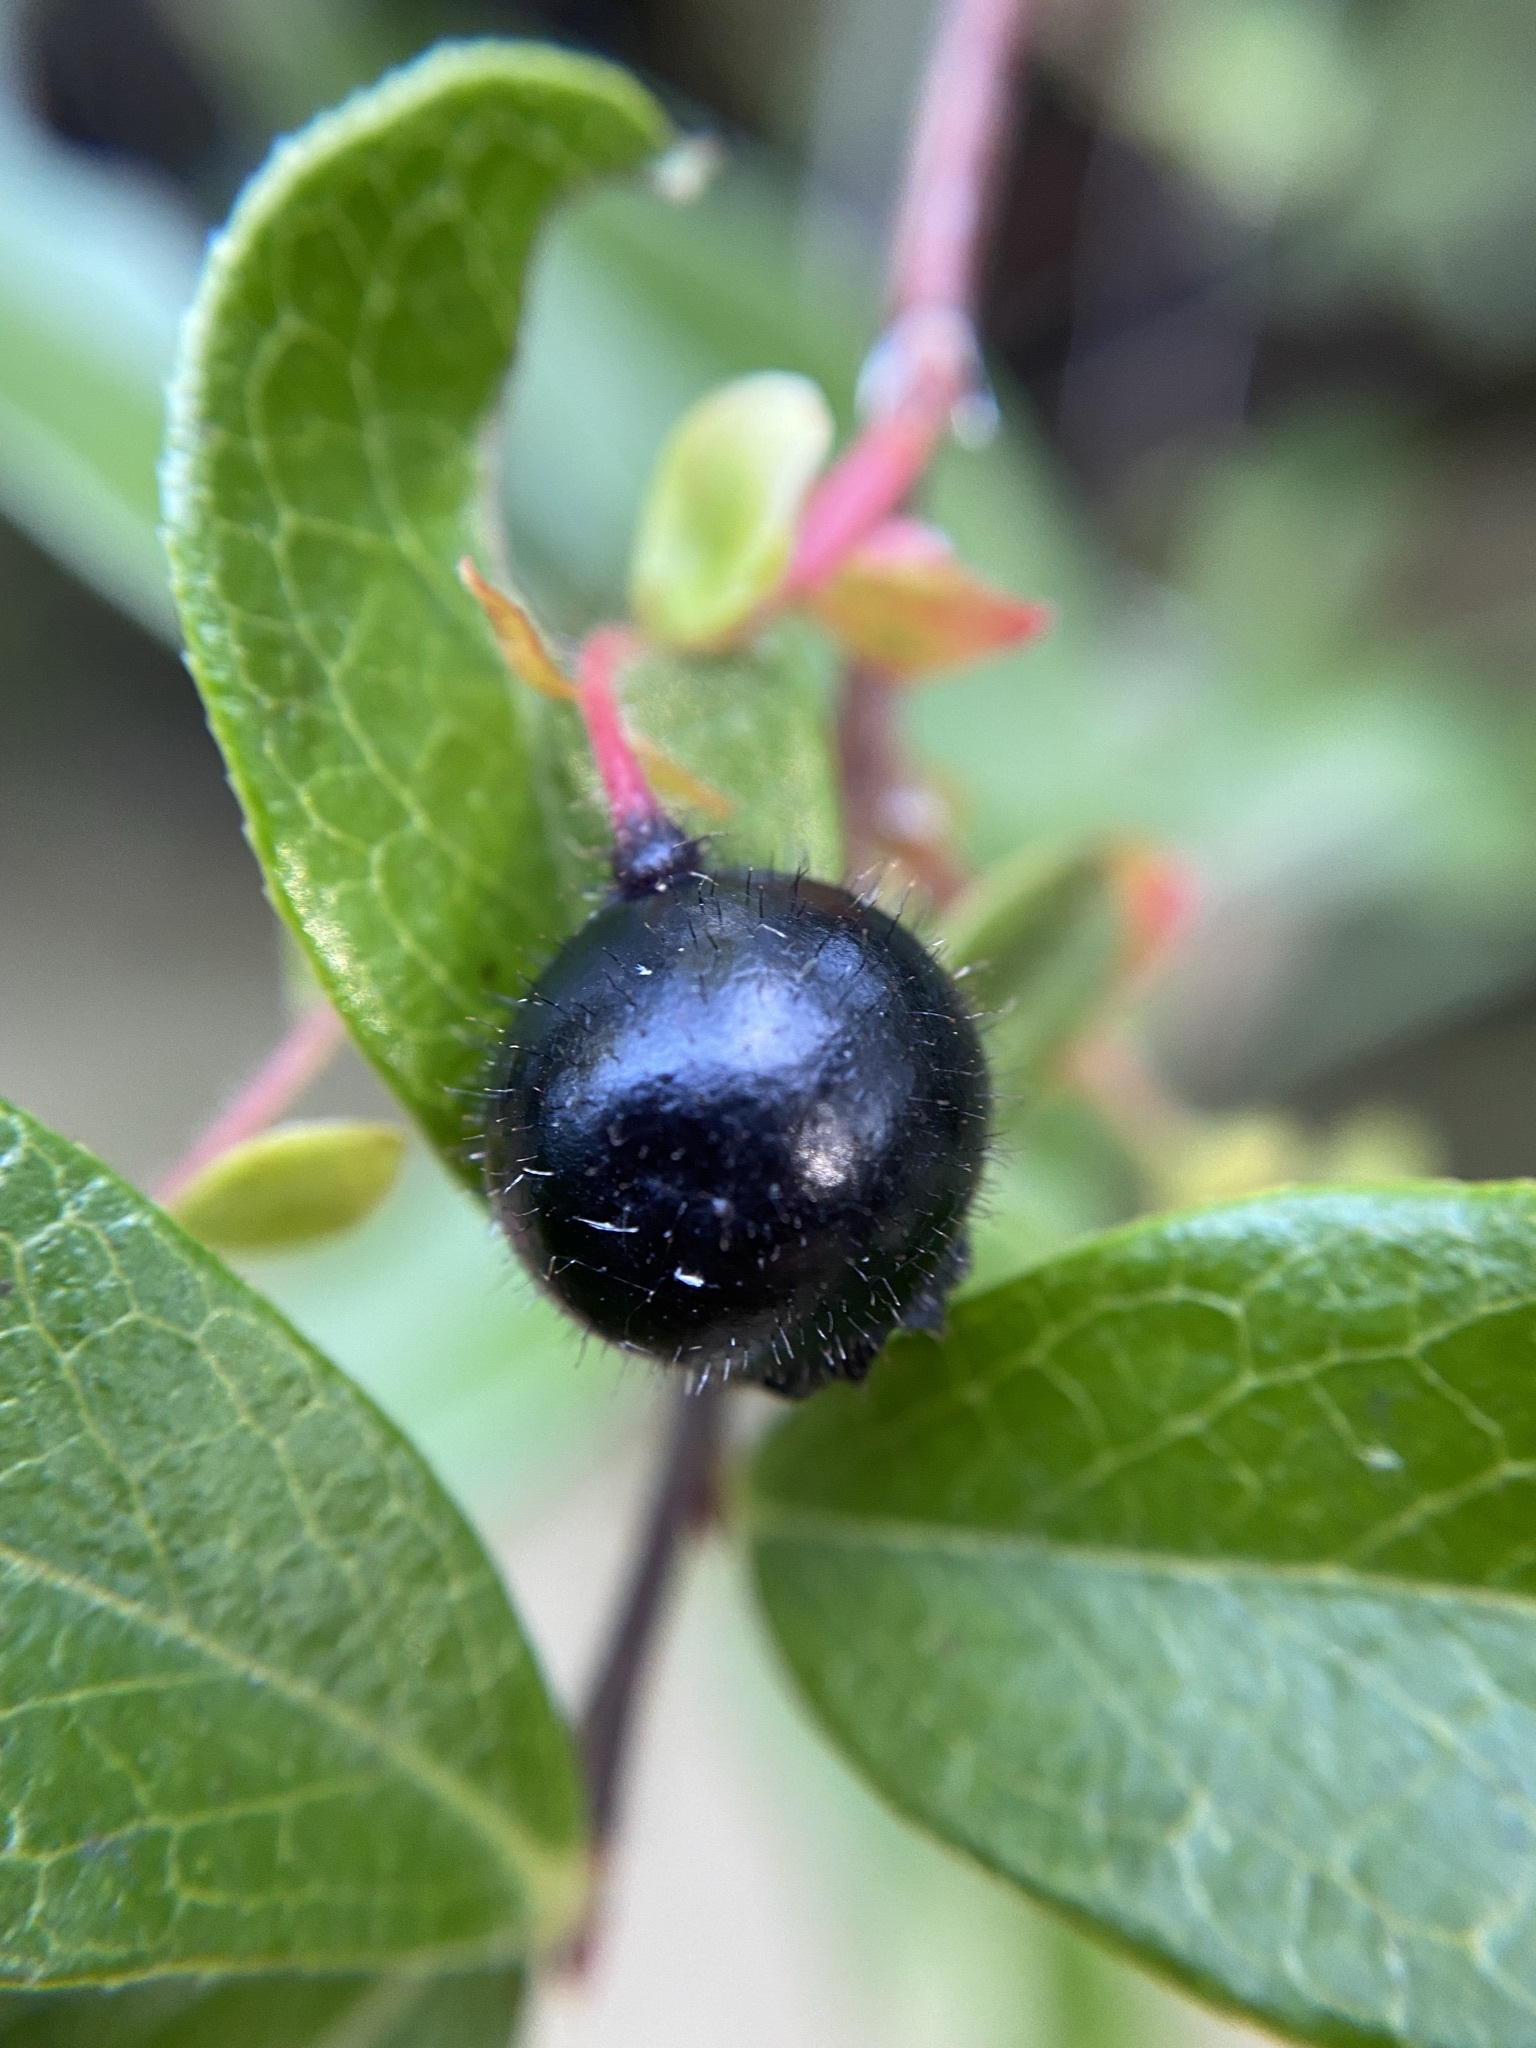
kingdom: Plantae
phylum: Tracheophyta
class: Magnoliopsida
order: Ericales
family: Ericaceae
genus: Gaylussacia
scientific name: Gaylussacia mosieri
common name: Hirsute huckleberry
